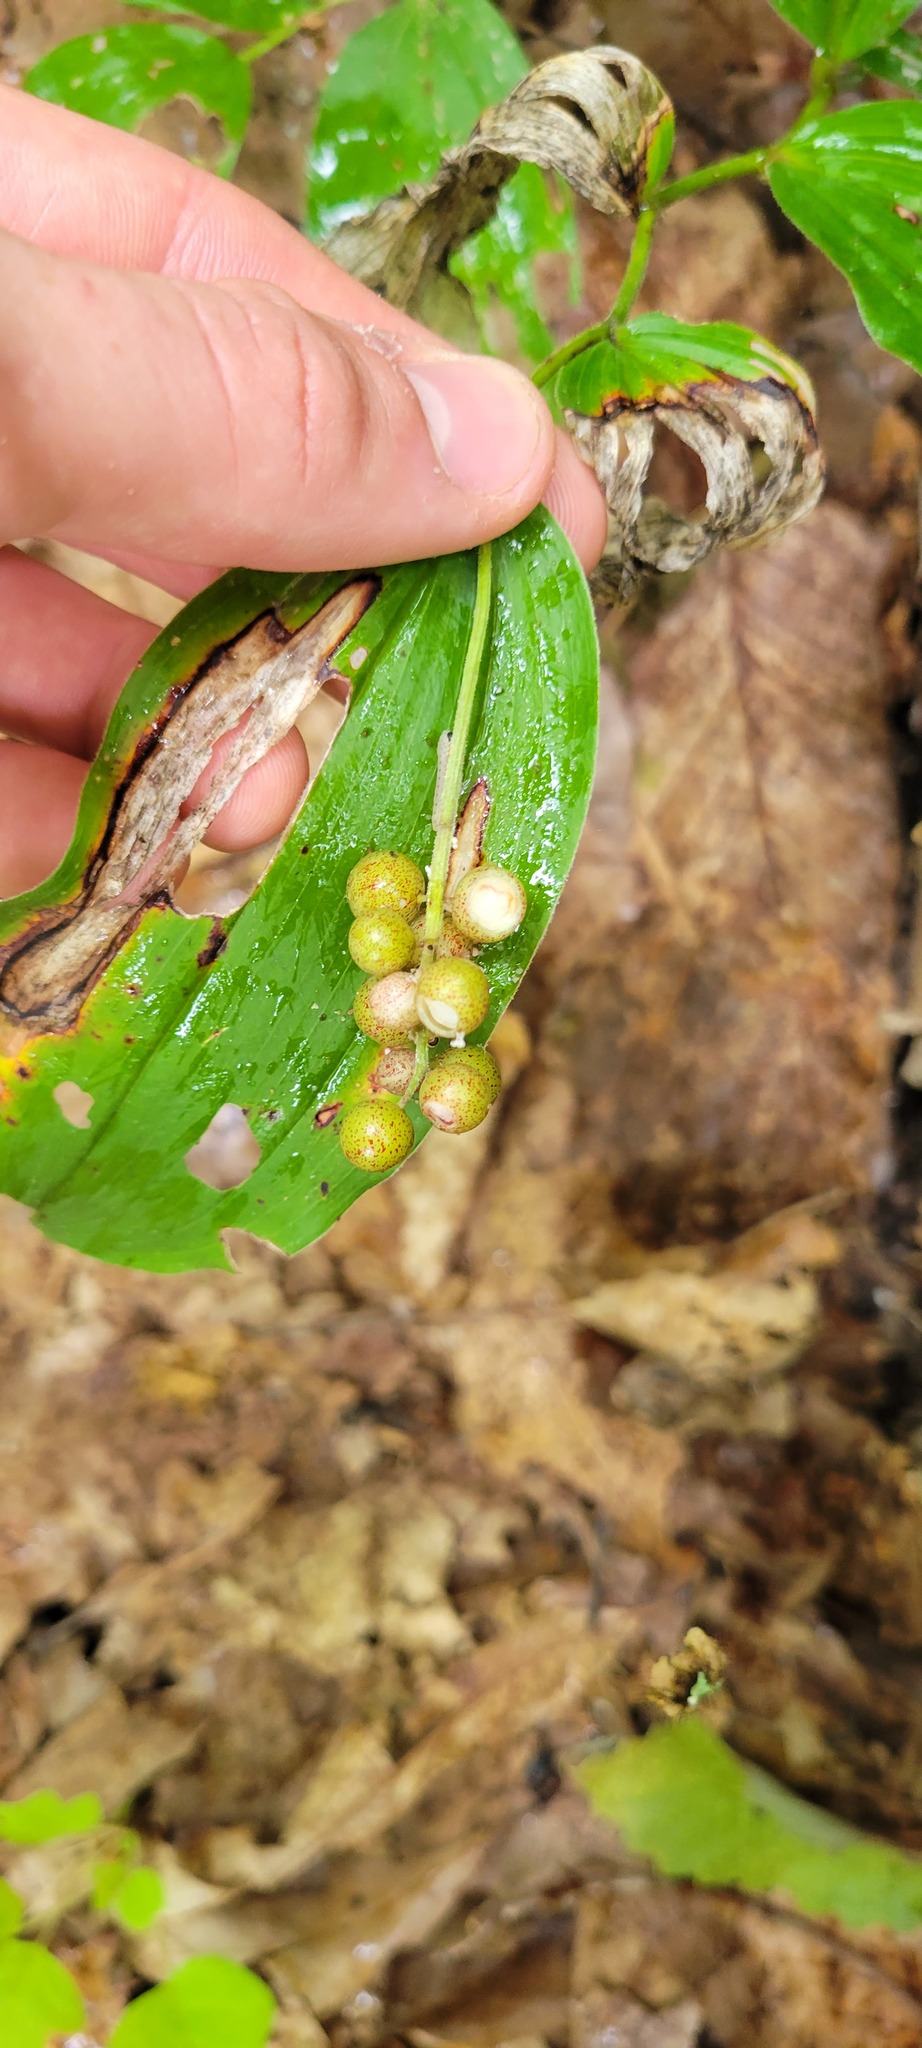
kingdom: Plantae
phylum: Tracheophyta
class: Liliopsida
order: Asparagales
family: Asparagaceae
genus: Maianthemum
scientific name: Maianthemum racemosum
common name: False spikenard
